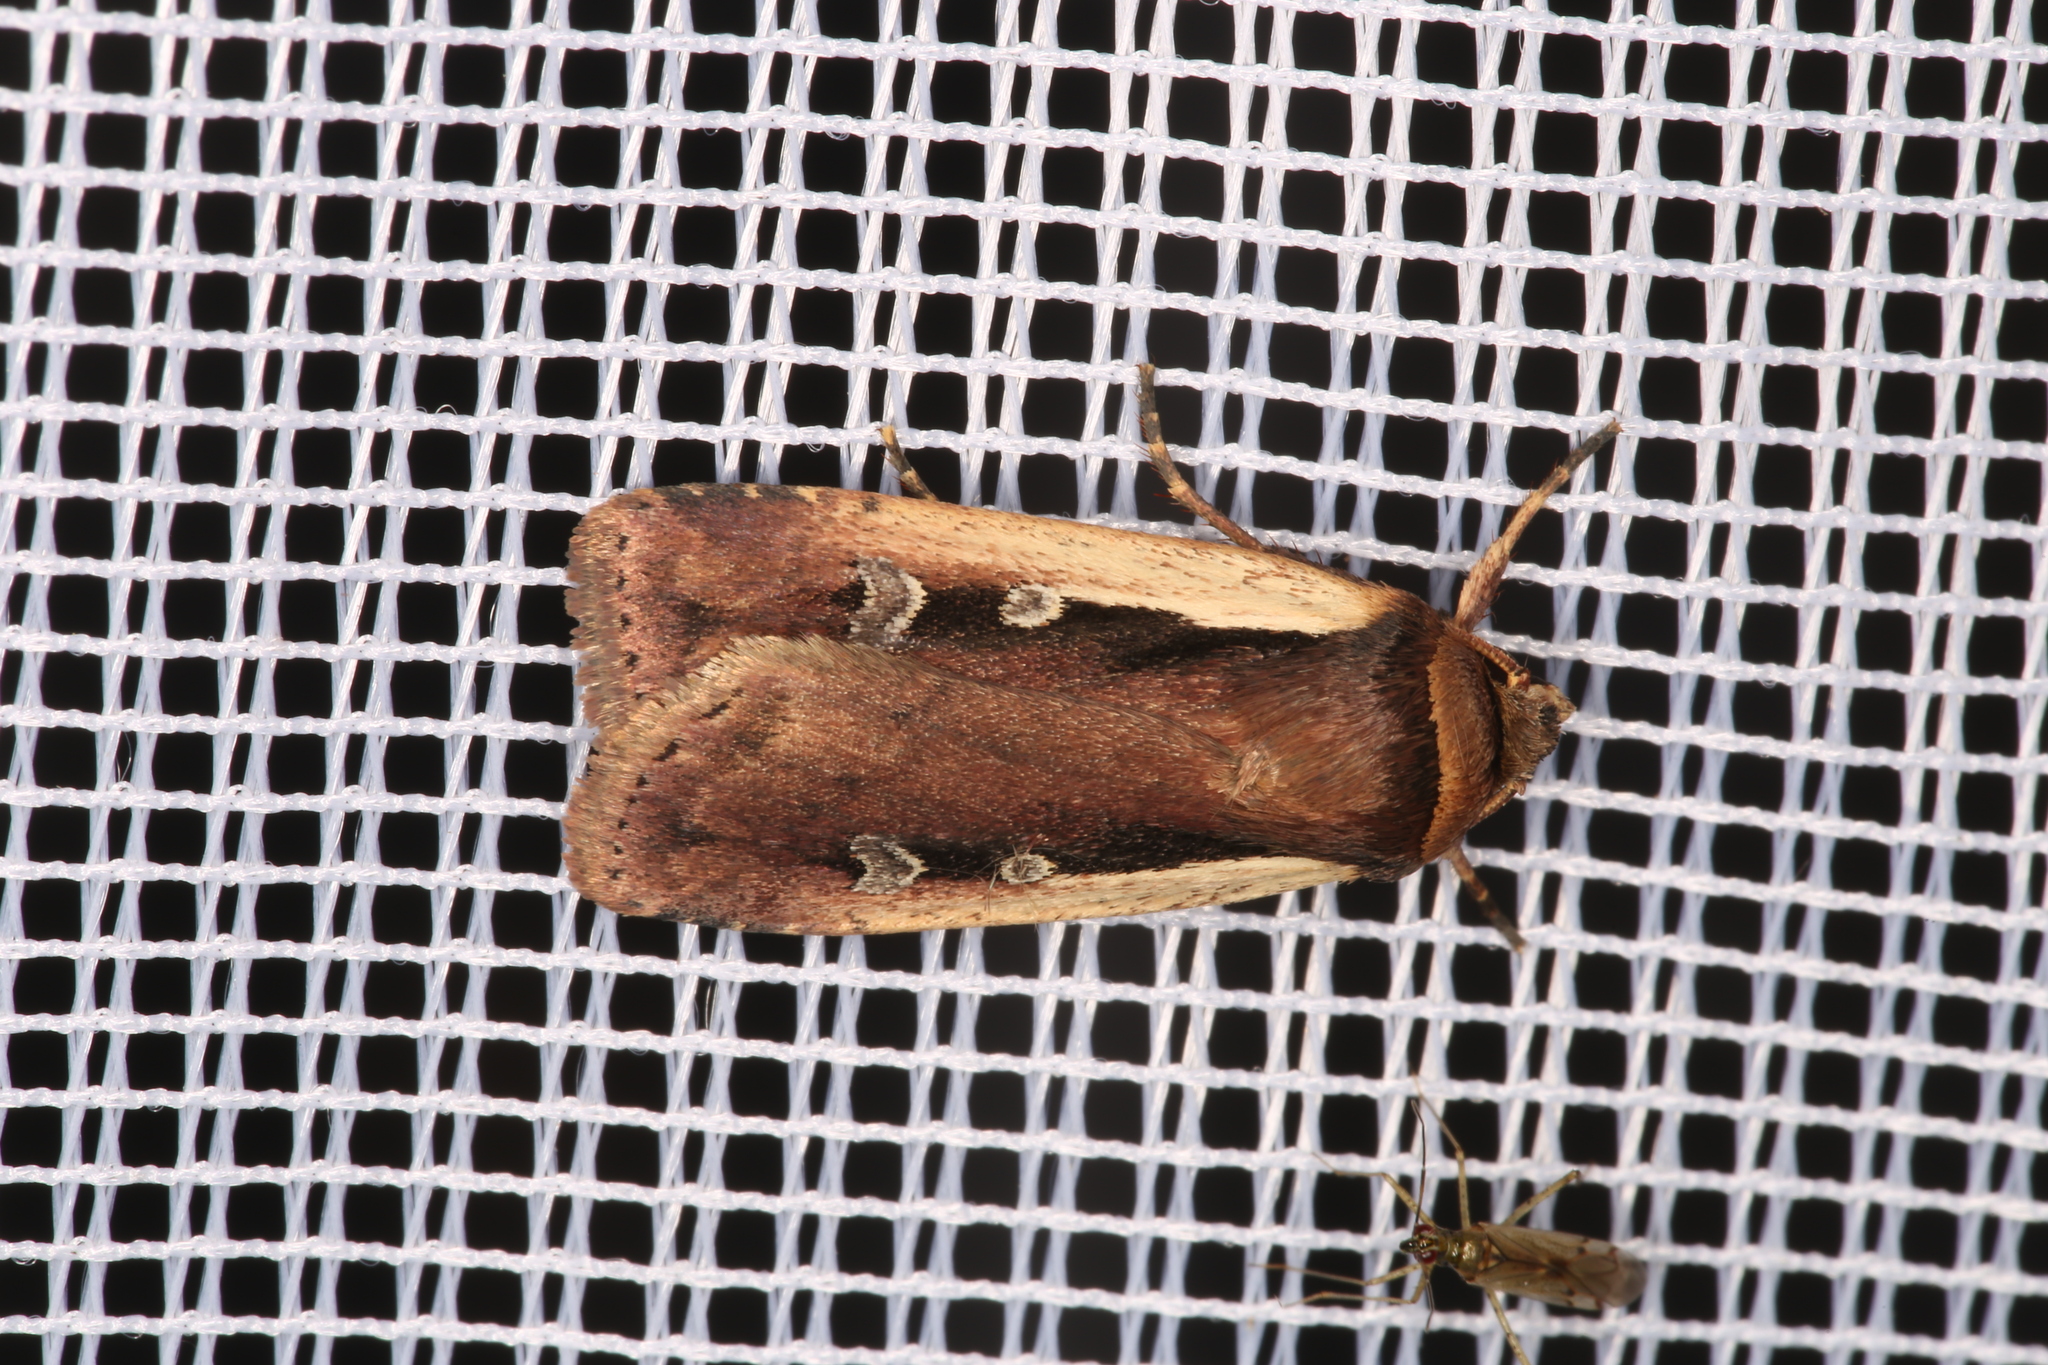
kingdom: Animalia
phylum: Arthropoda
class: Insecta
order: Lepidoptera
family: Noctuidae
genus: Ochropleura
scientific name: Ochropleura plecta
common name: Flame shoulder
